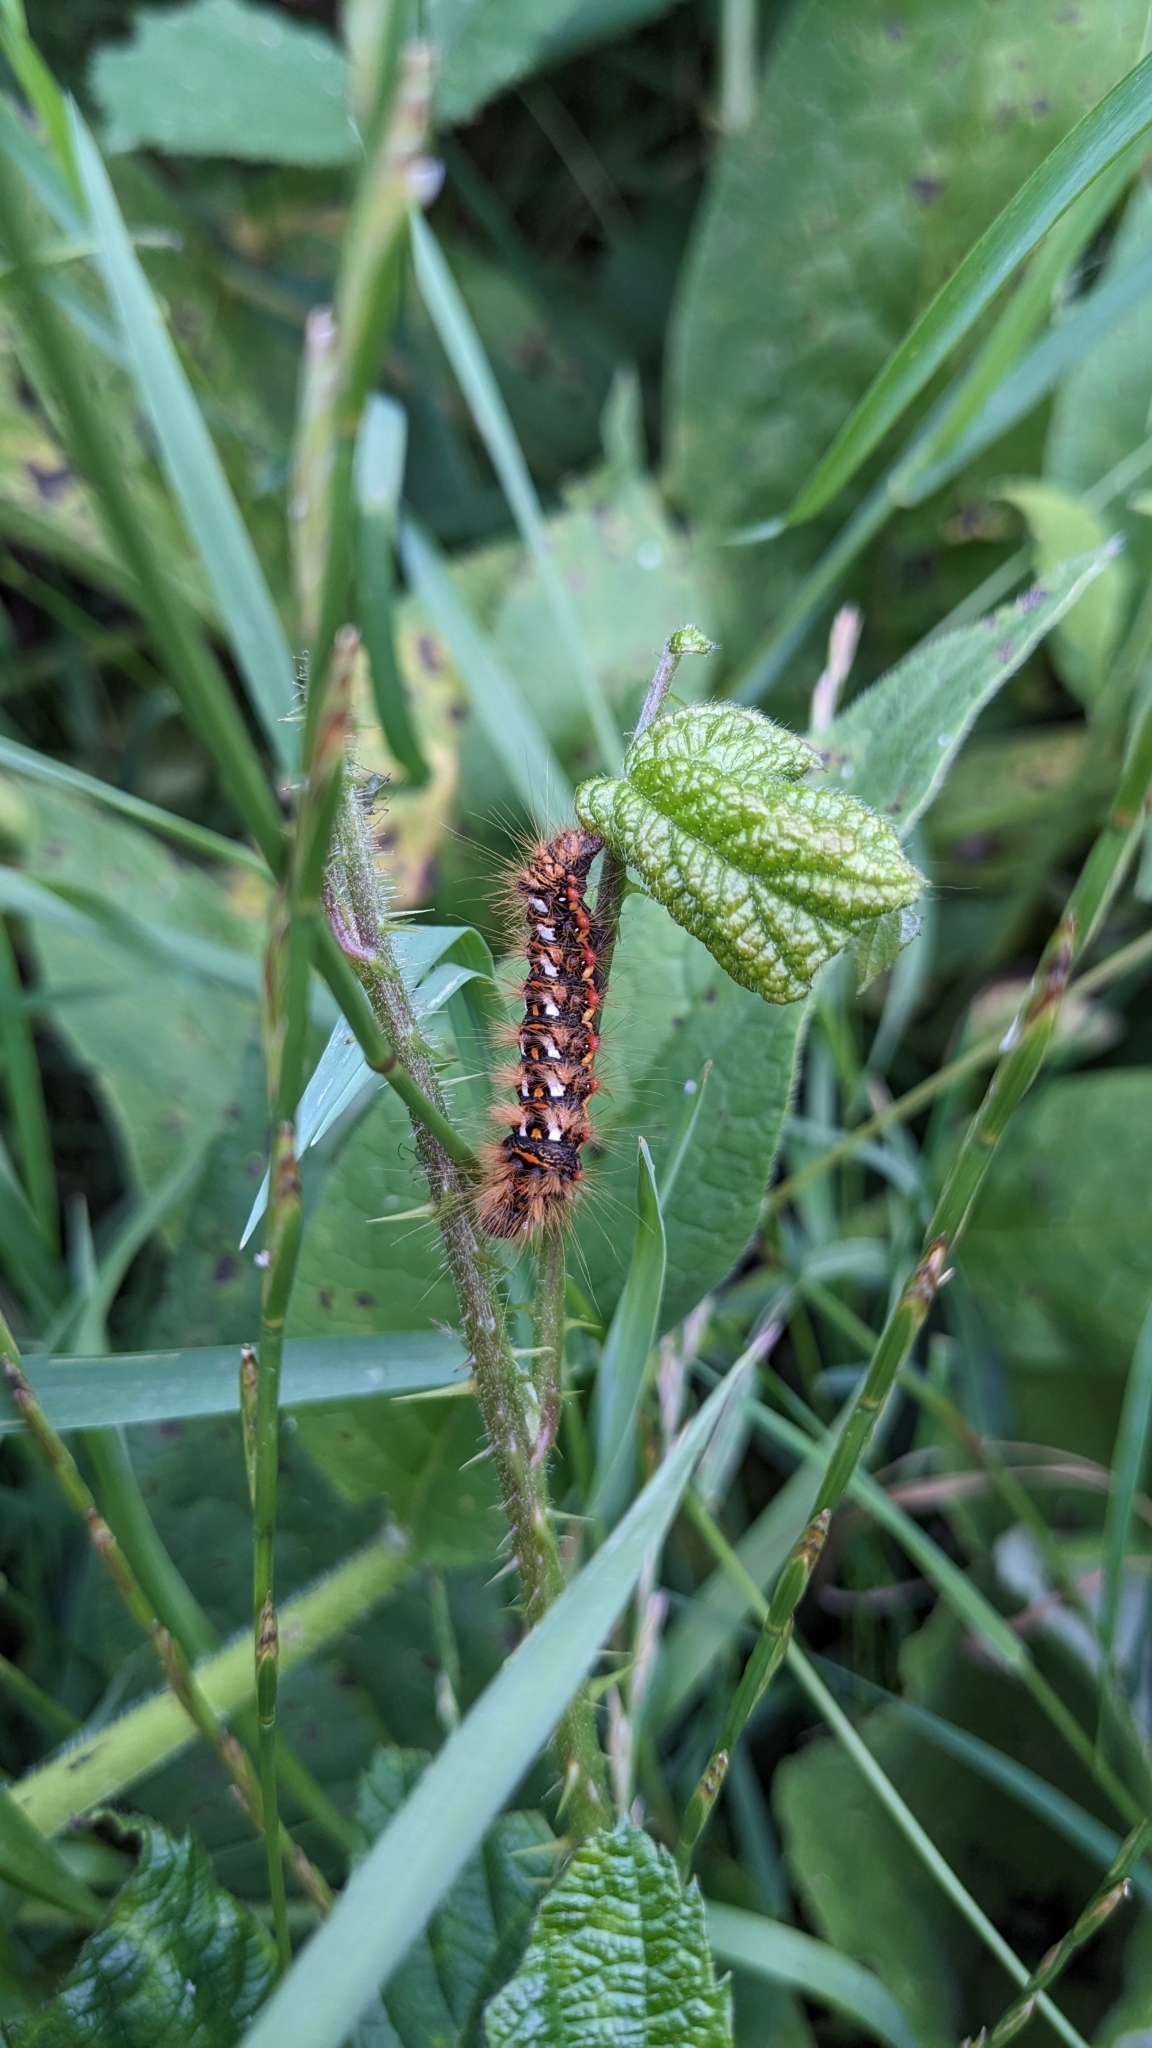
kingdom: Animalia
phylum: Arthropoda
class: Insecta
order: Lepidoptera
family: Noctuidae
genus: Acronicta
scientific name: Acronicta rumicis
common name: Knot grass
